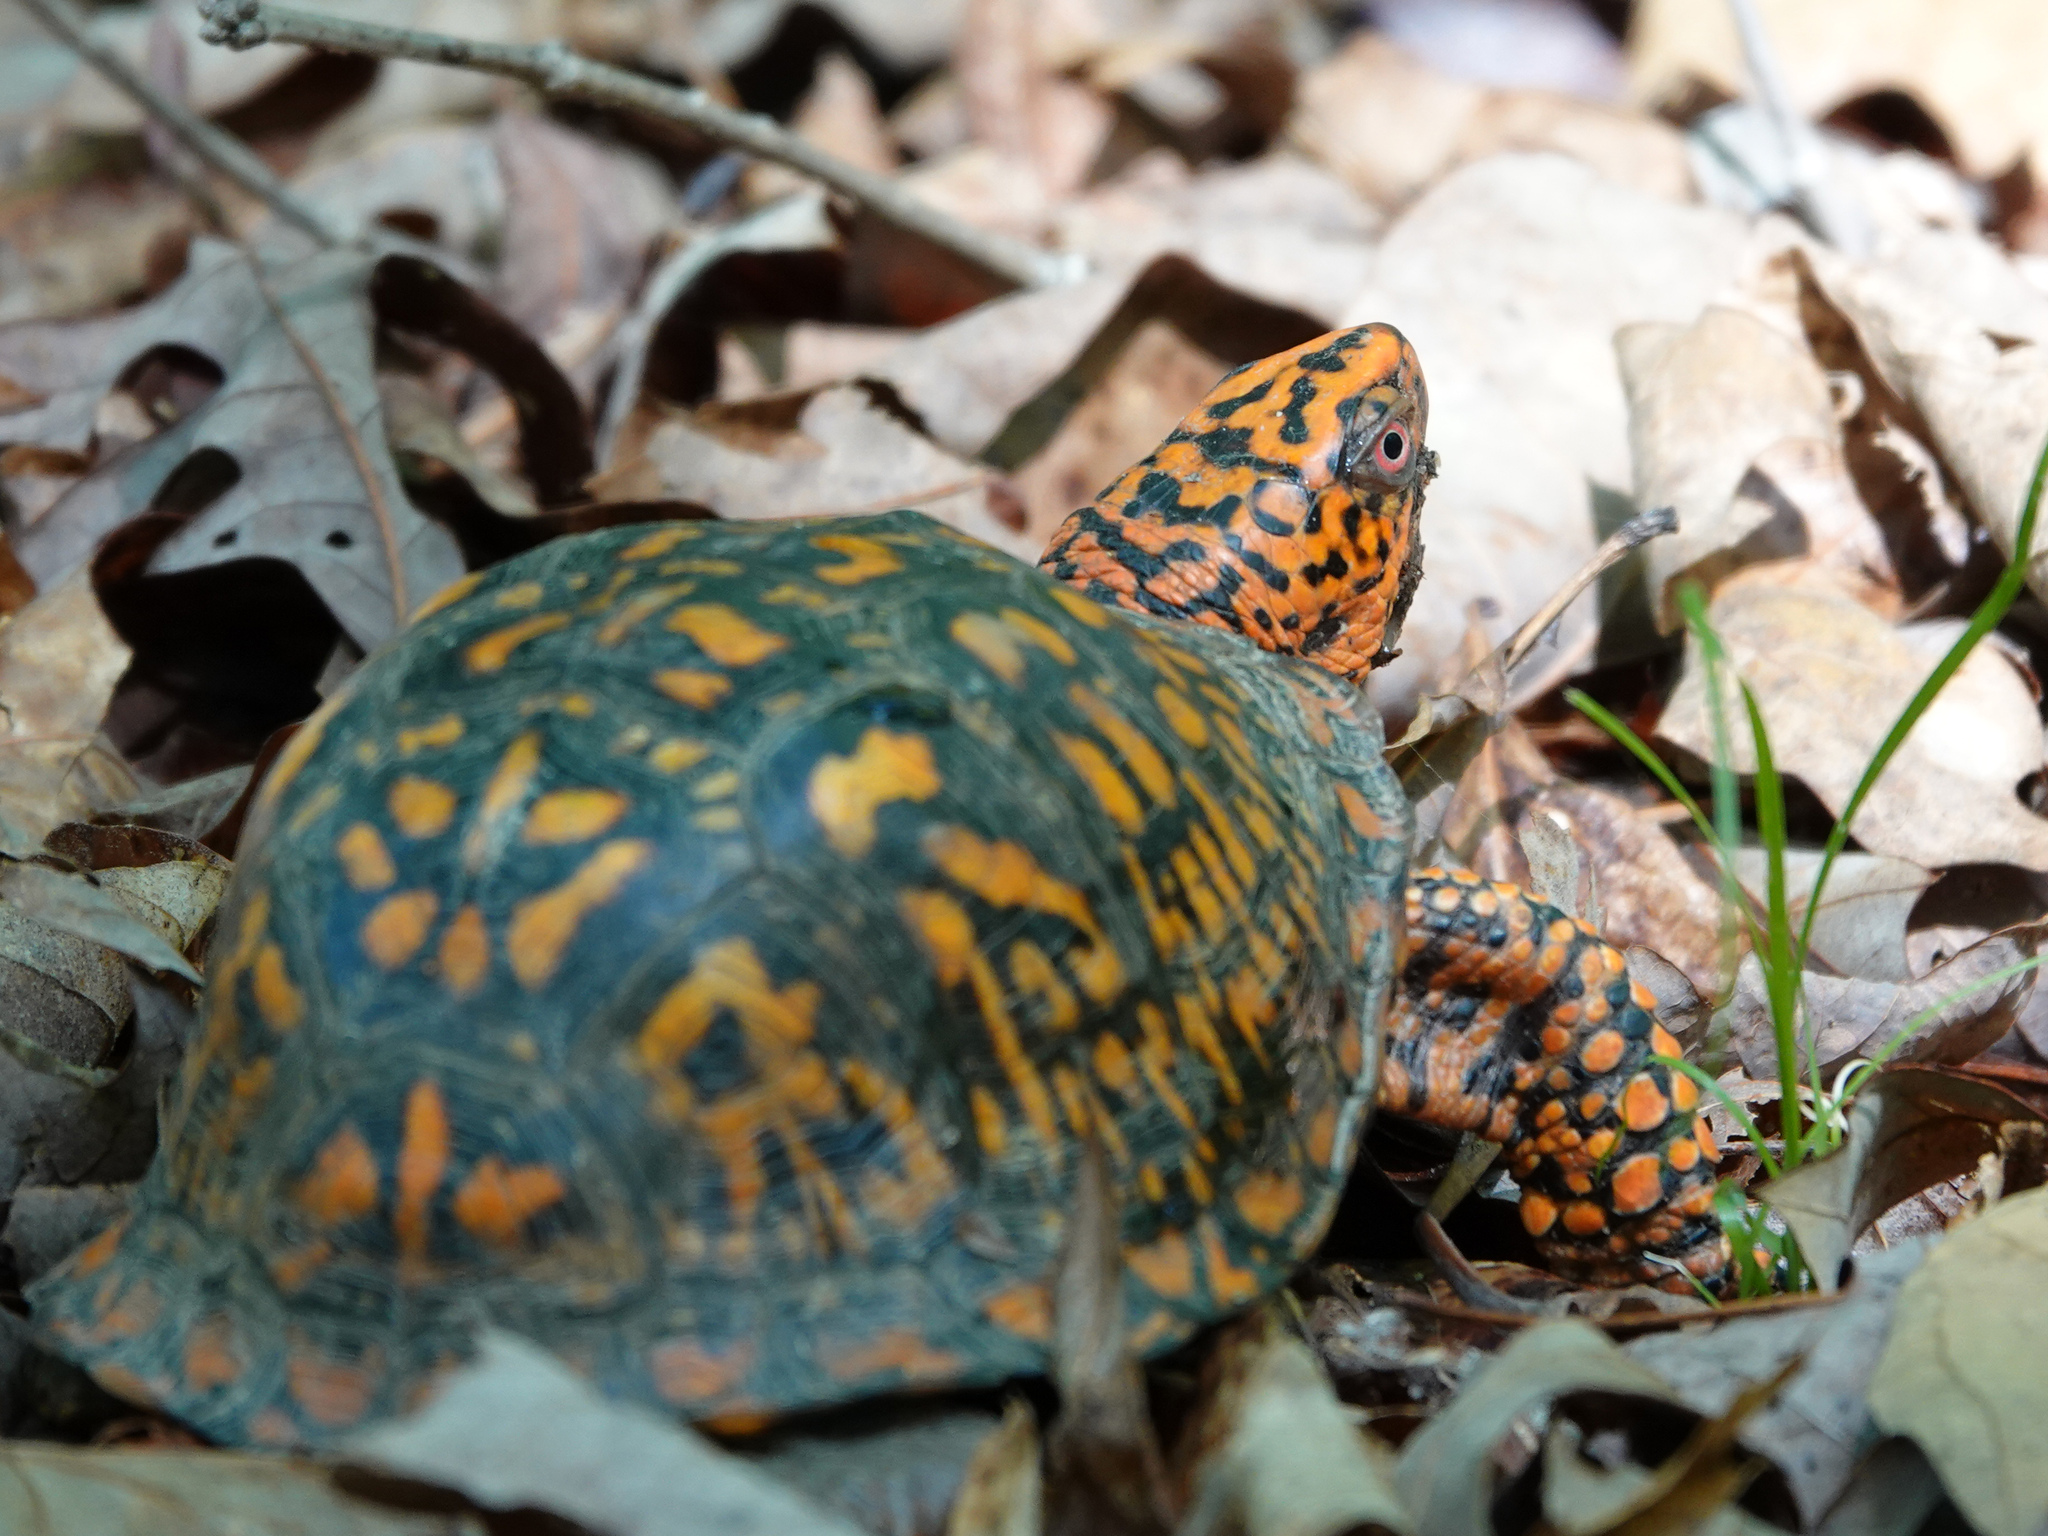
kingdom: Animalia
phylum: Chordata
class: Testudines
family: Emydidae
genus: Terrapene
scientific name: Terrapene carolina
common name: Common box turtle
